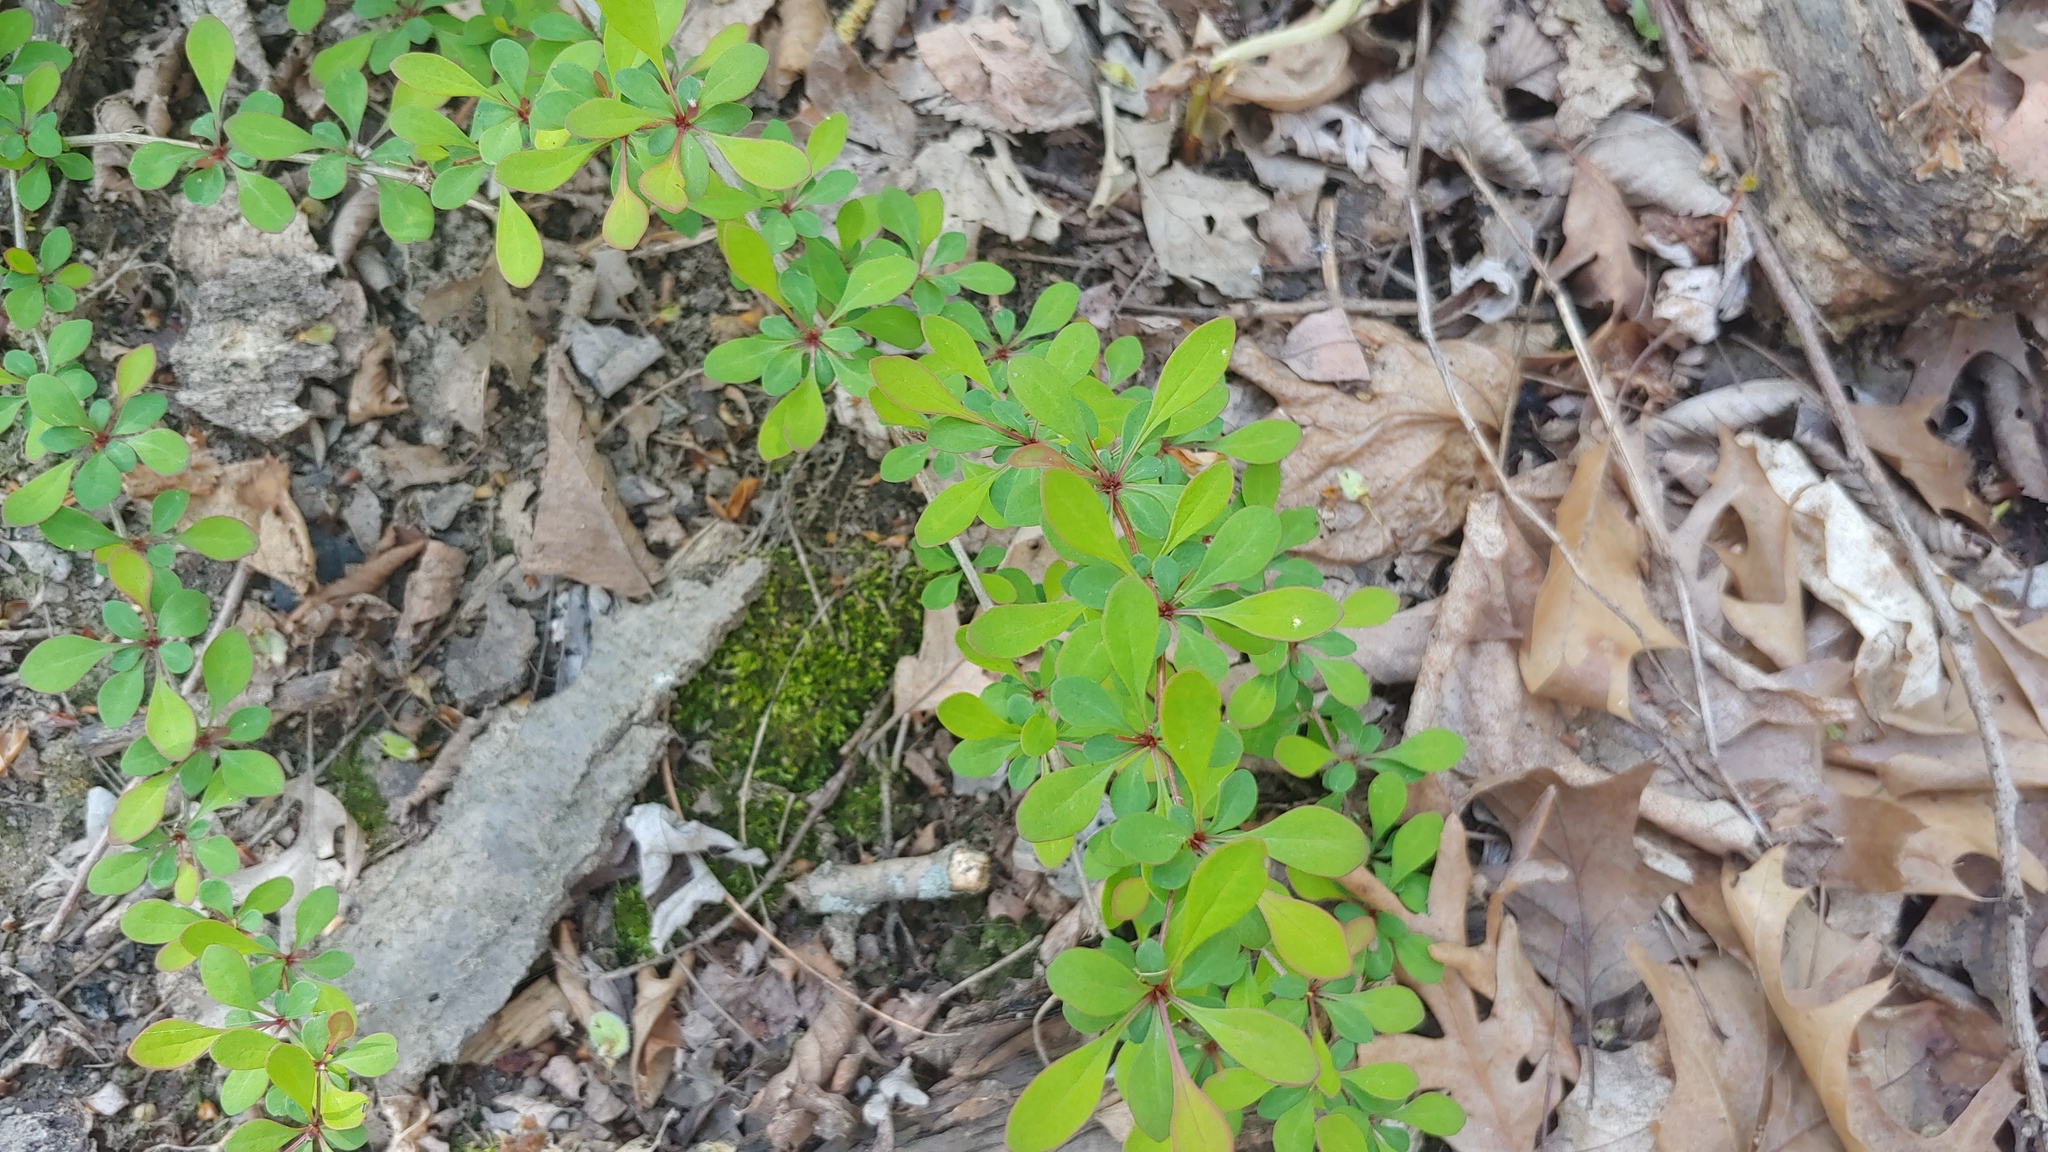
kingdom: Plantae
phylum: Tracheophyta
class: Magnoliopsida
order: Ranunculales
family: Berberidaceae
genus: Berberis
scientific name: Berberis thunbergii
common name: Japanese barberry
